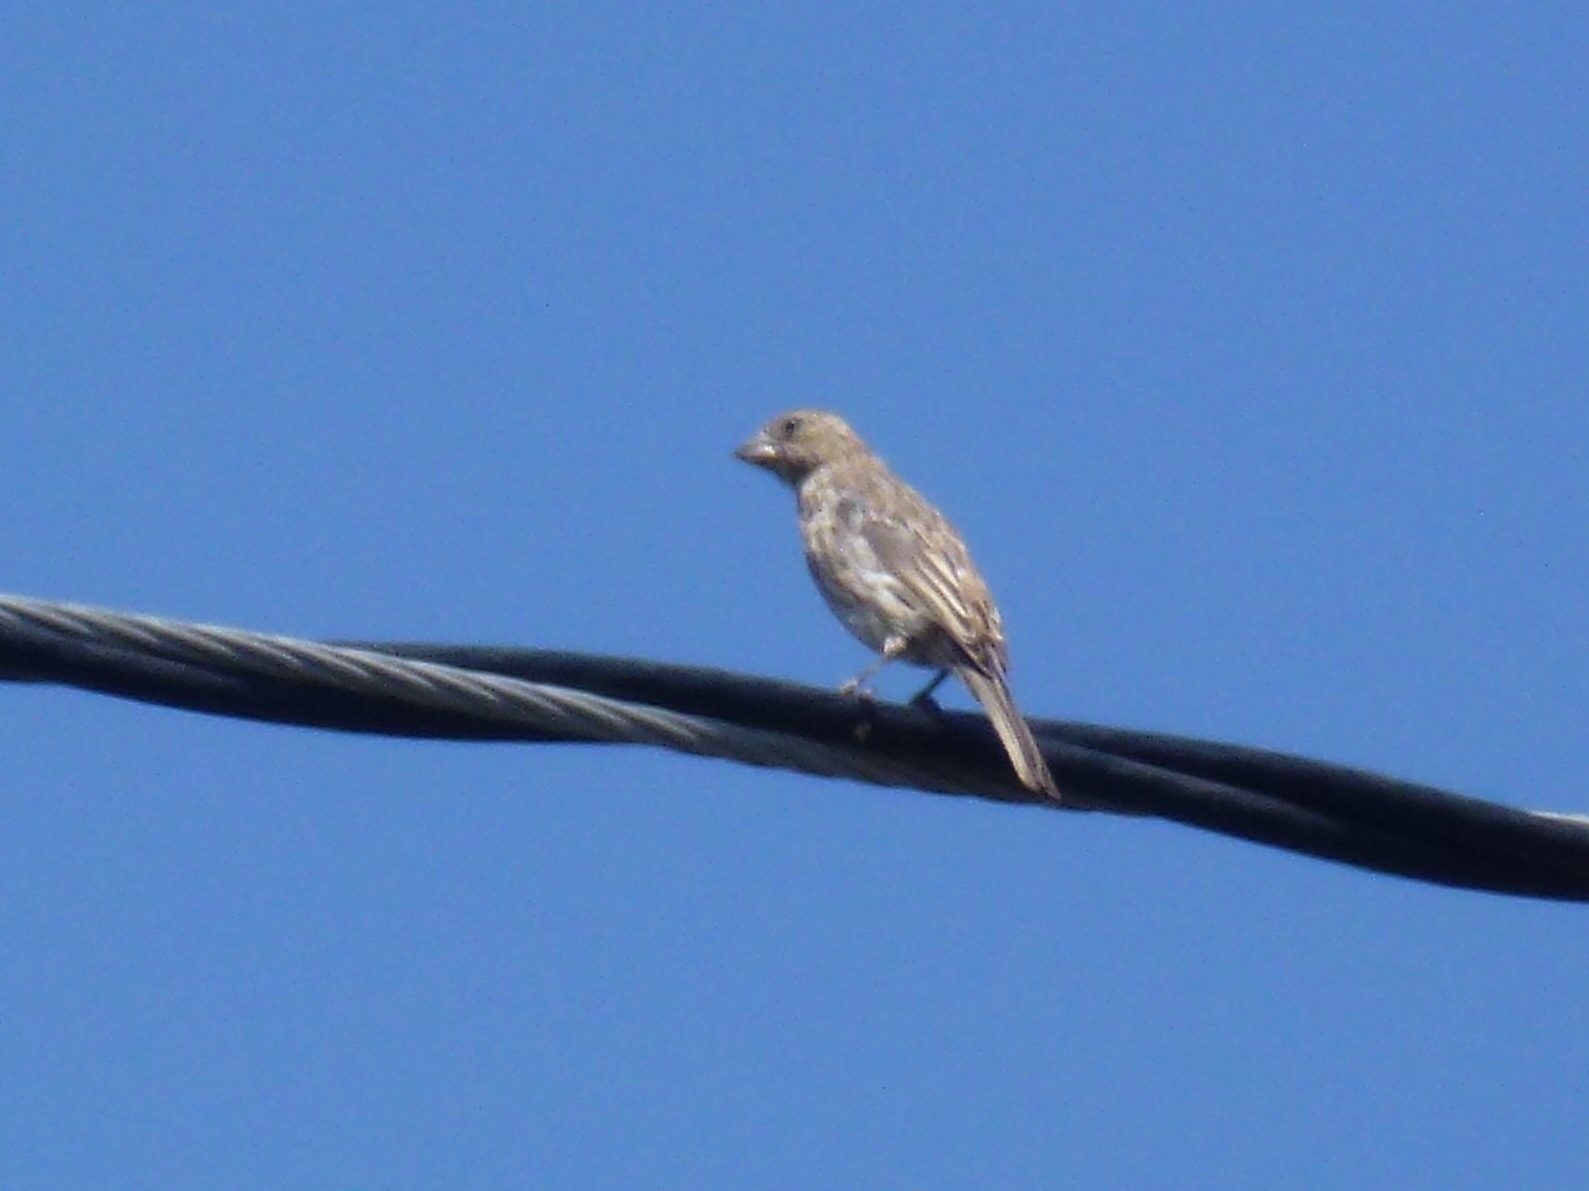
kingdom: Animalia
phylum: Chordata
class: Aves
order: Passeriformes
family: Fringillidae
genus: Haemorhous
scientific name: Haemorhous mexicanus
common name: House finch
